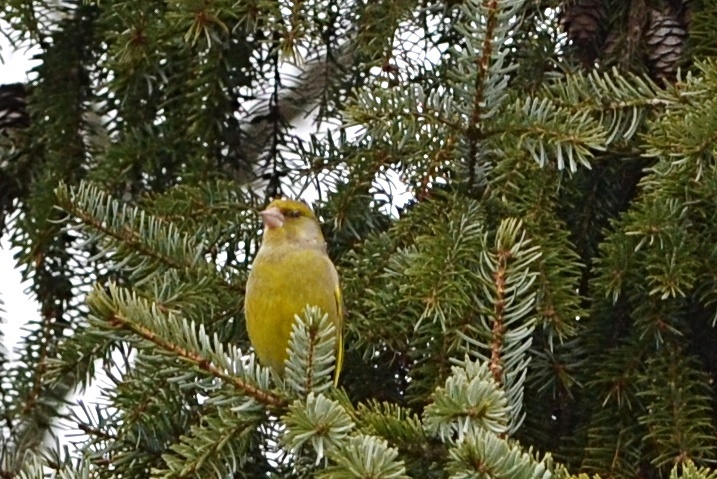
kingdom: Plantae
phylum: Tracheophyta
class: Liliopsida
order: Poales
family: Poaceae
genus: Chloris
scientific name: Chloris chloris
